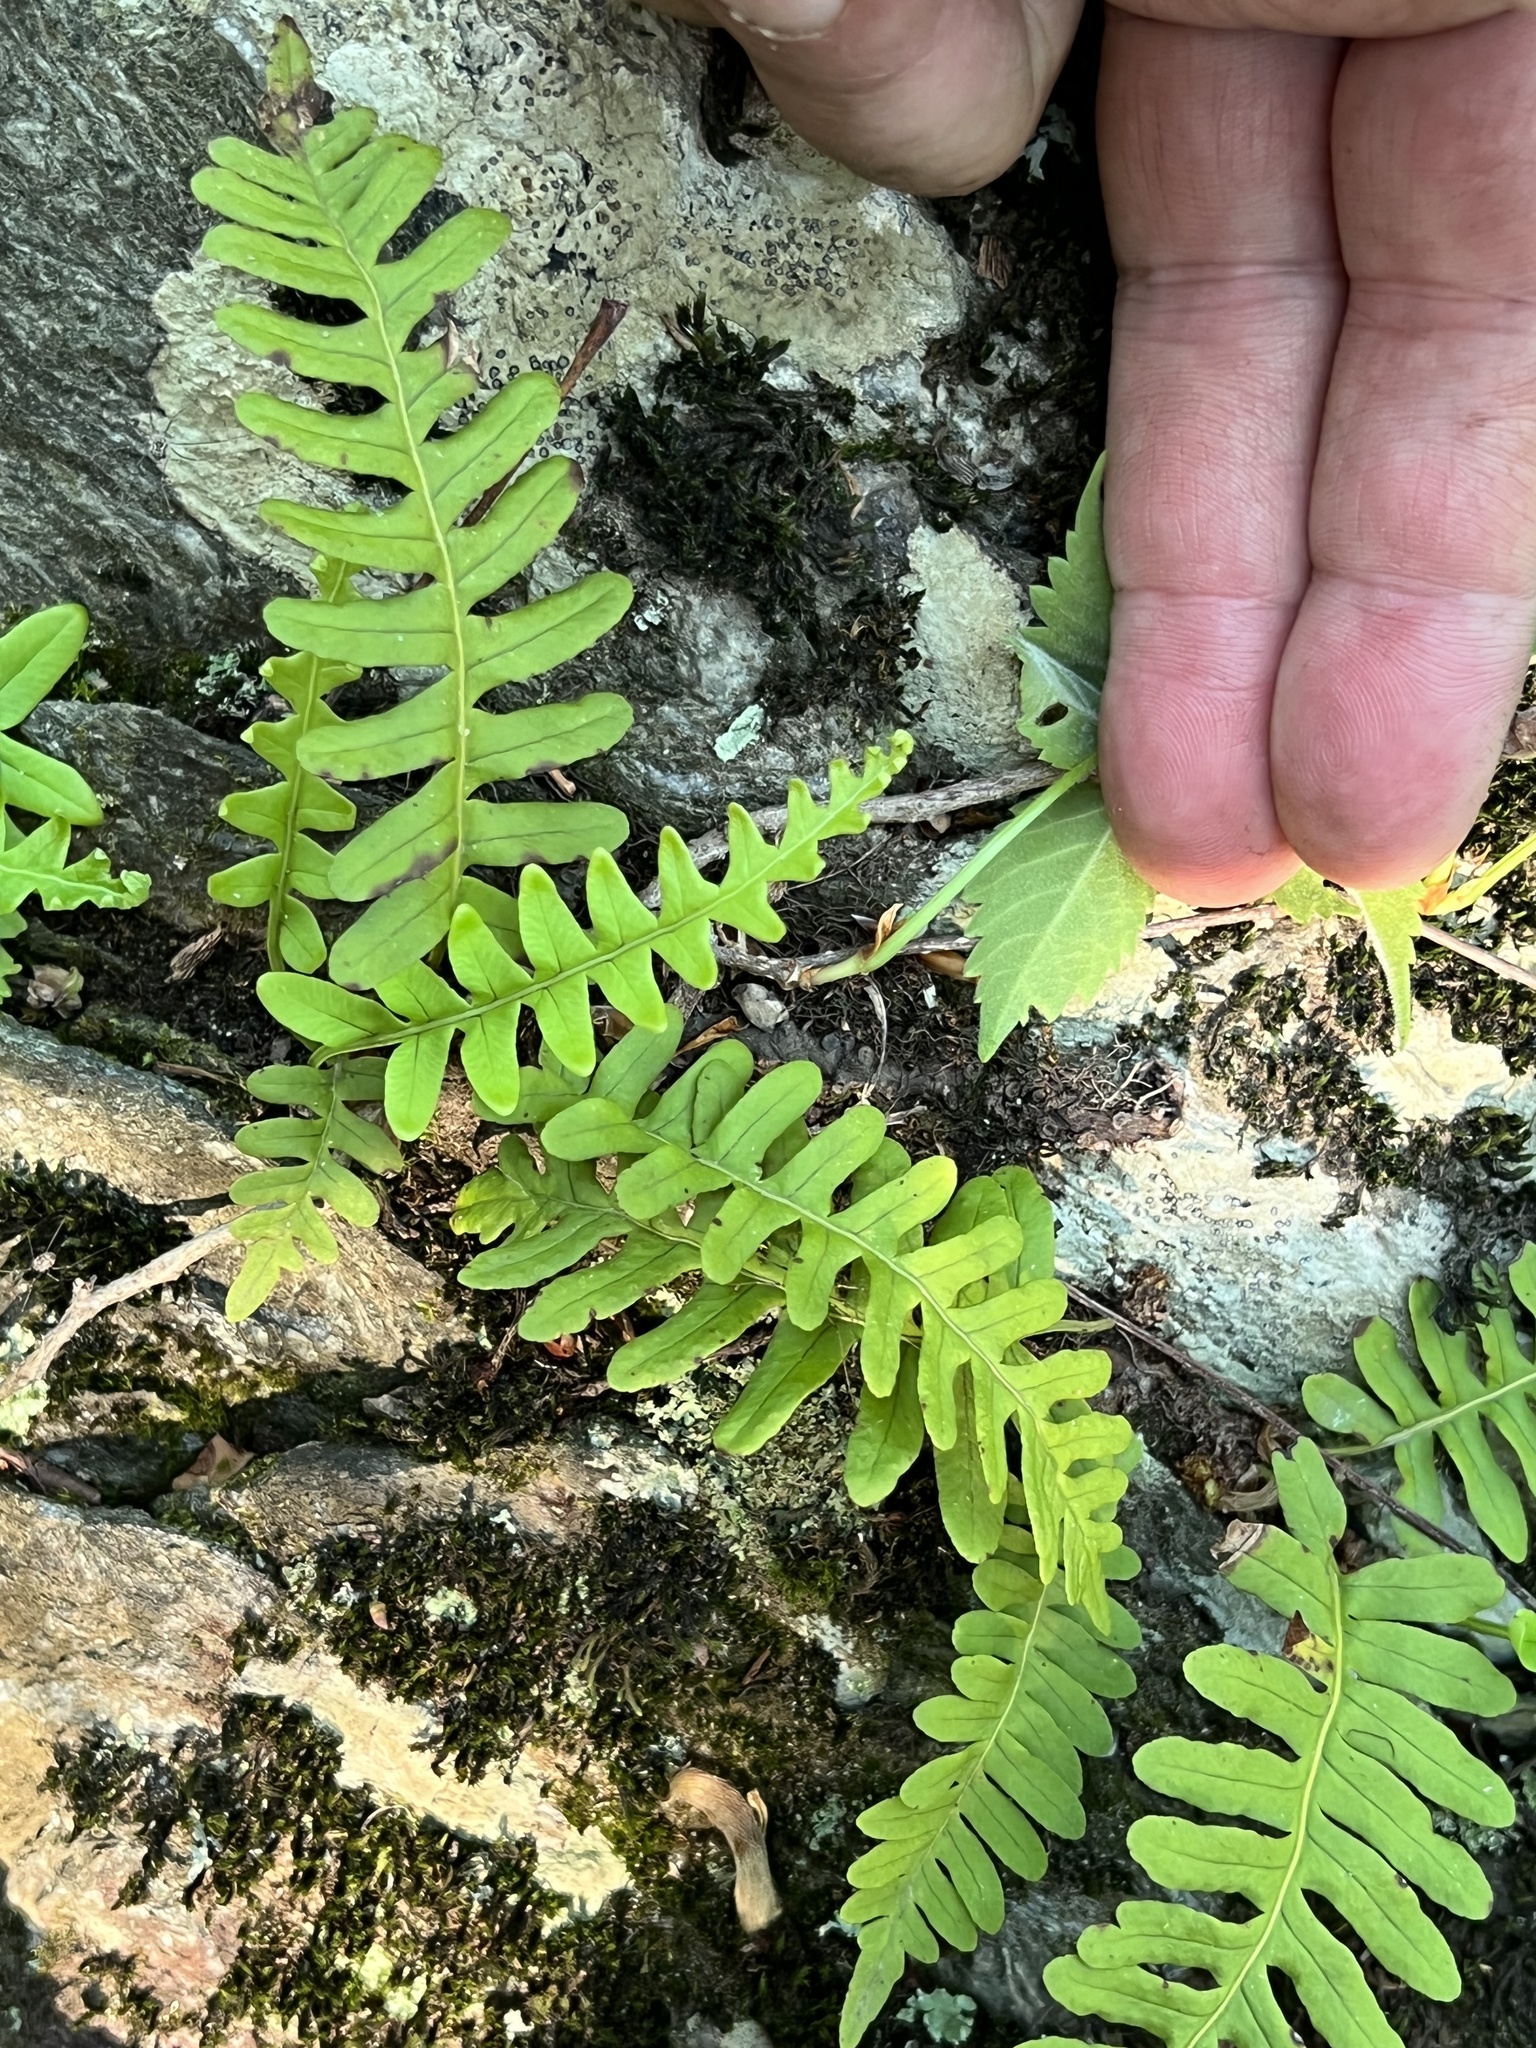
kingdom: Plantae
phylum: Tracheophyta
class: Polypodiopsida
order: Polypodiales
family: Polypodiaceae
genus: Polypodium
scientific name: Polypodium virginianum
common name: American wall fern
